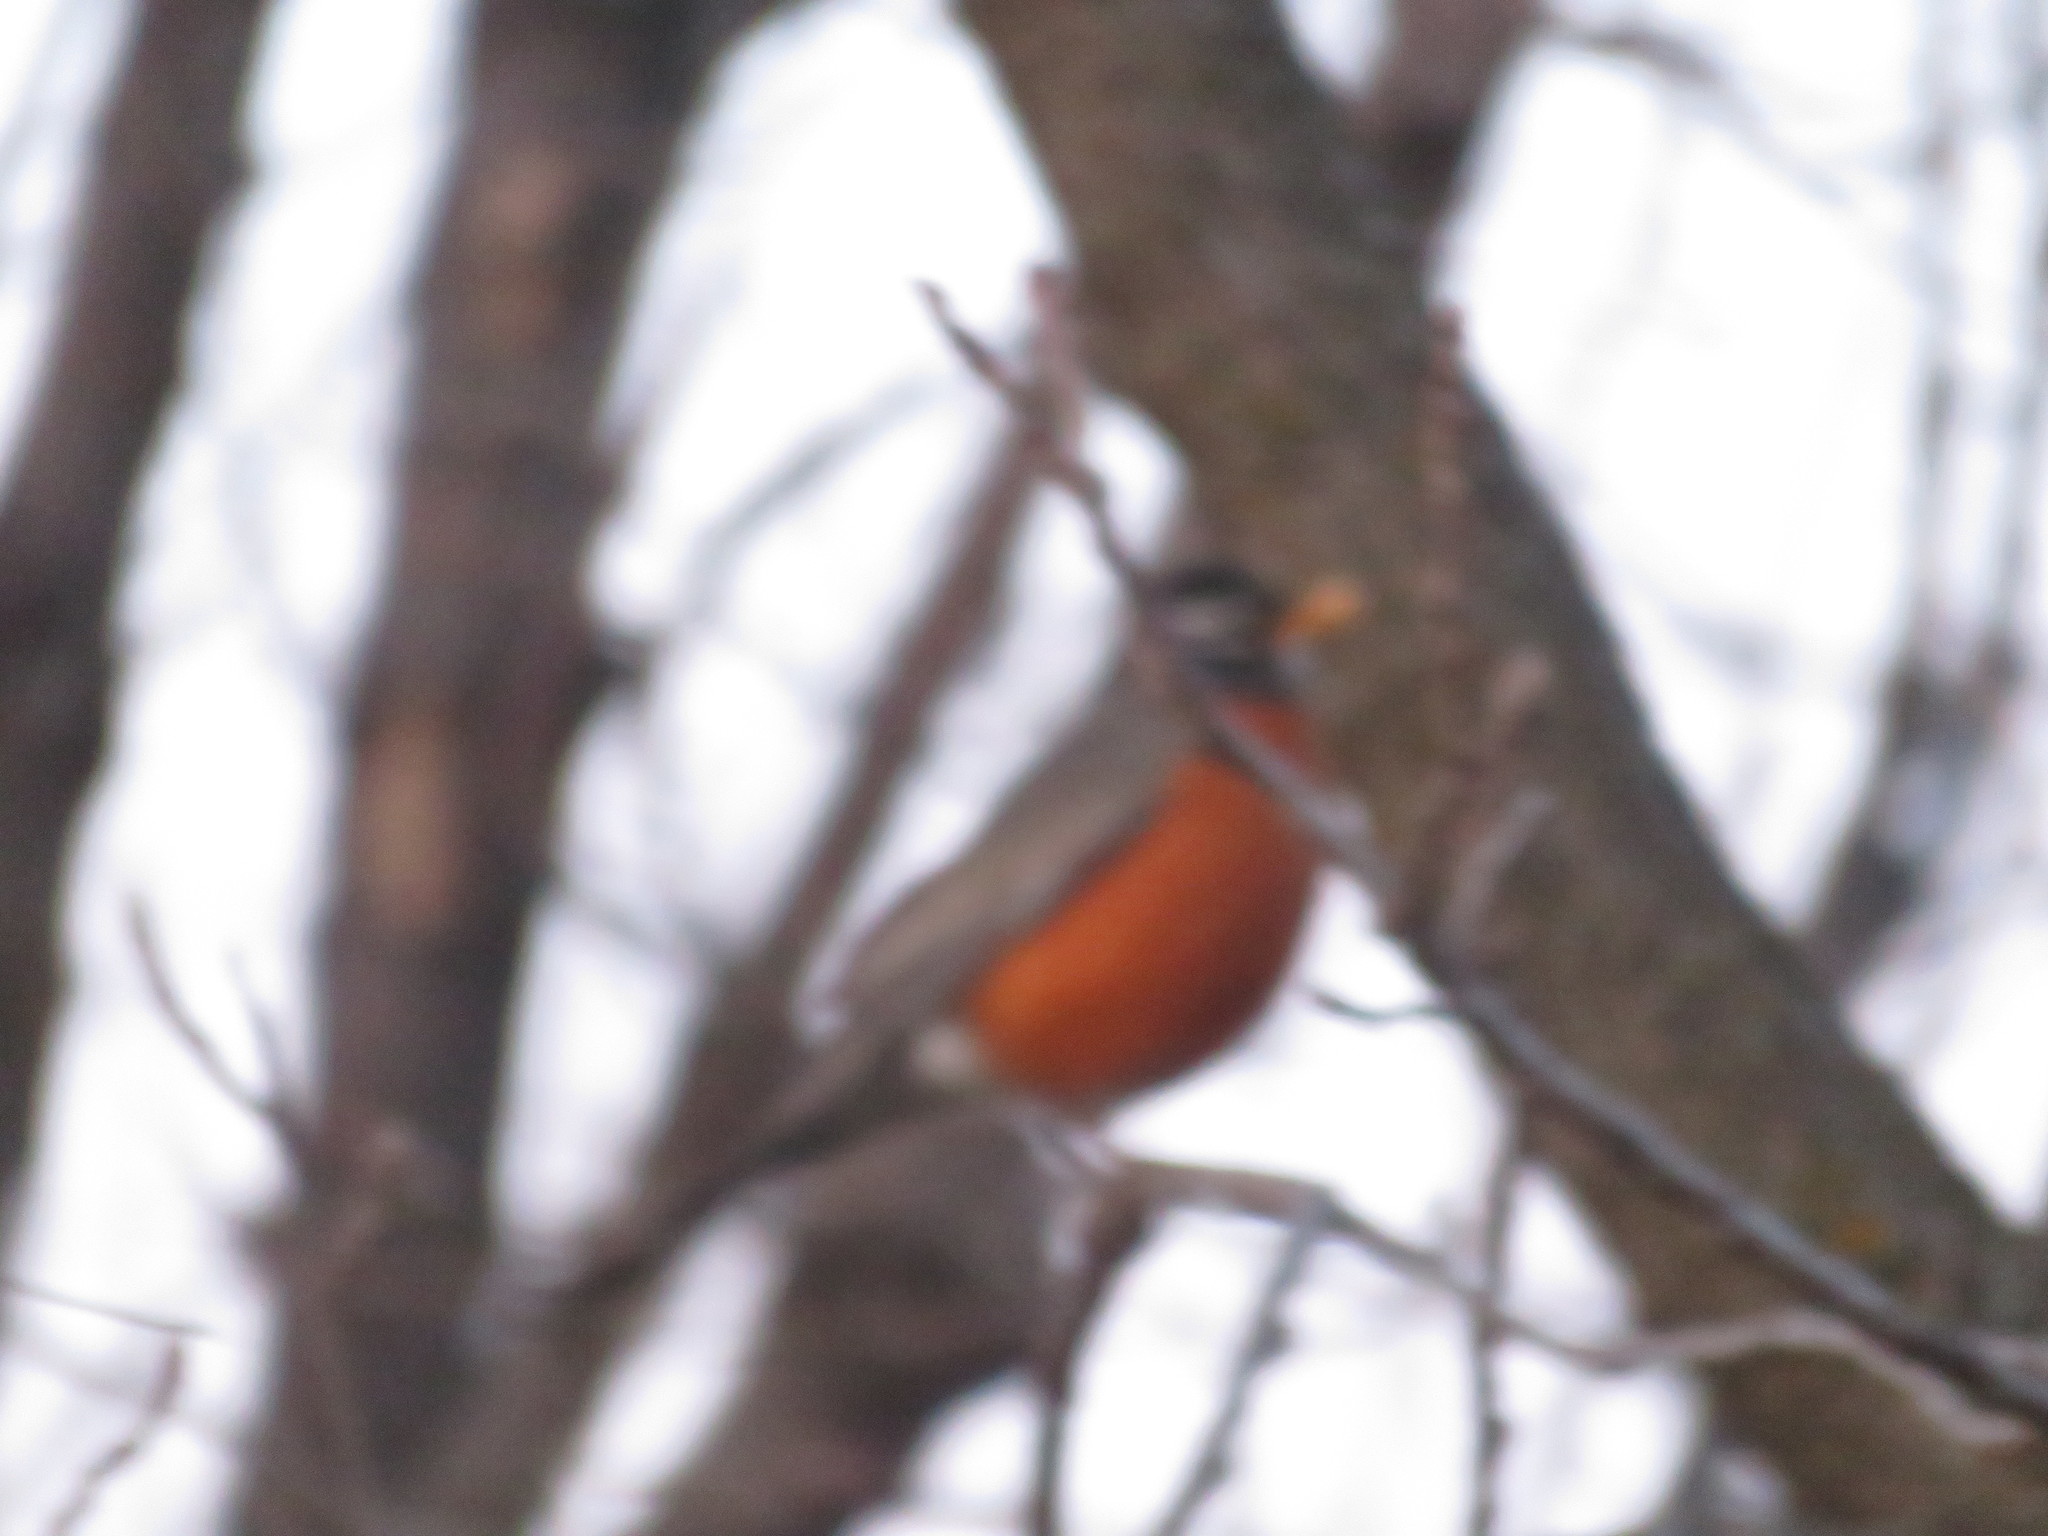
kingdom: Animalia
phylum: Chordata
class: Aves
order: Passeriformes
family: Turdidae
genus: Turdus
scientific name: Turdus migratorius
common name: American robin
